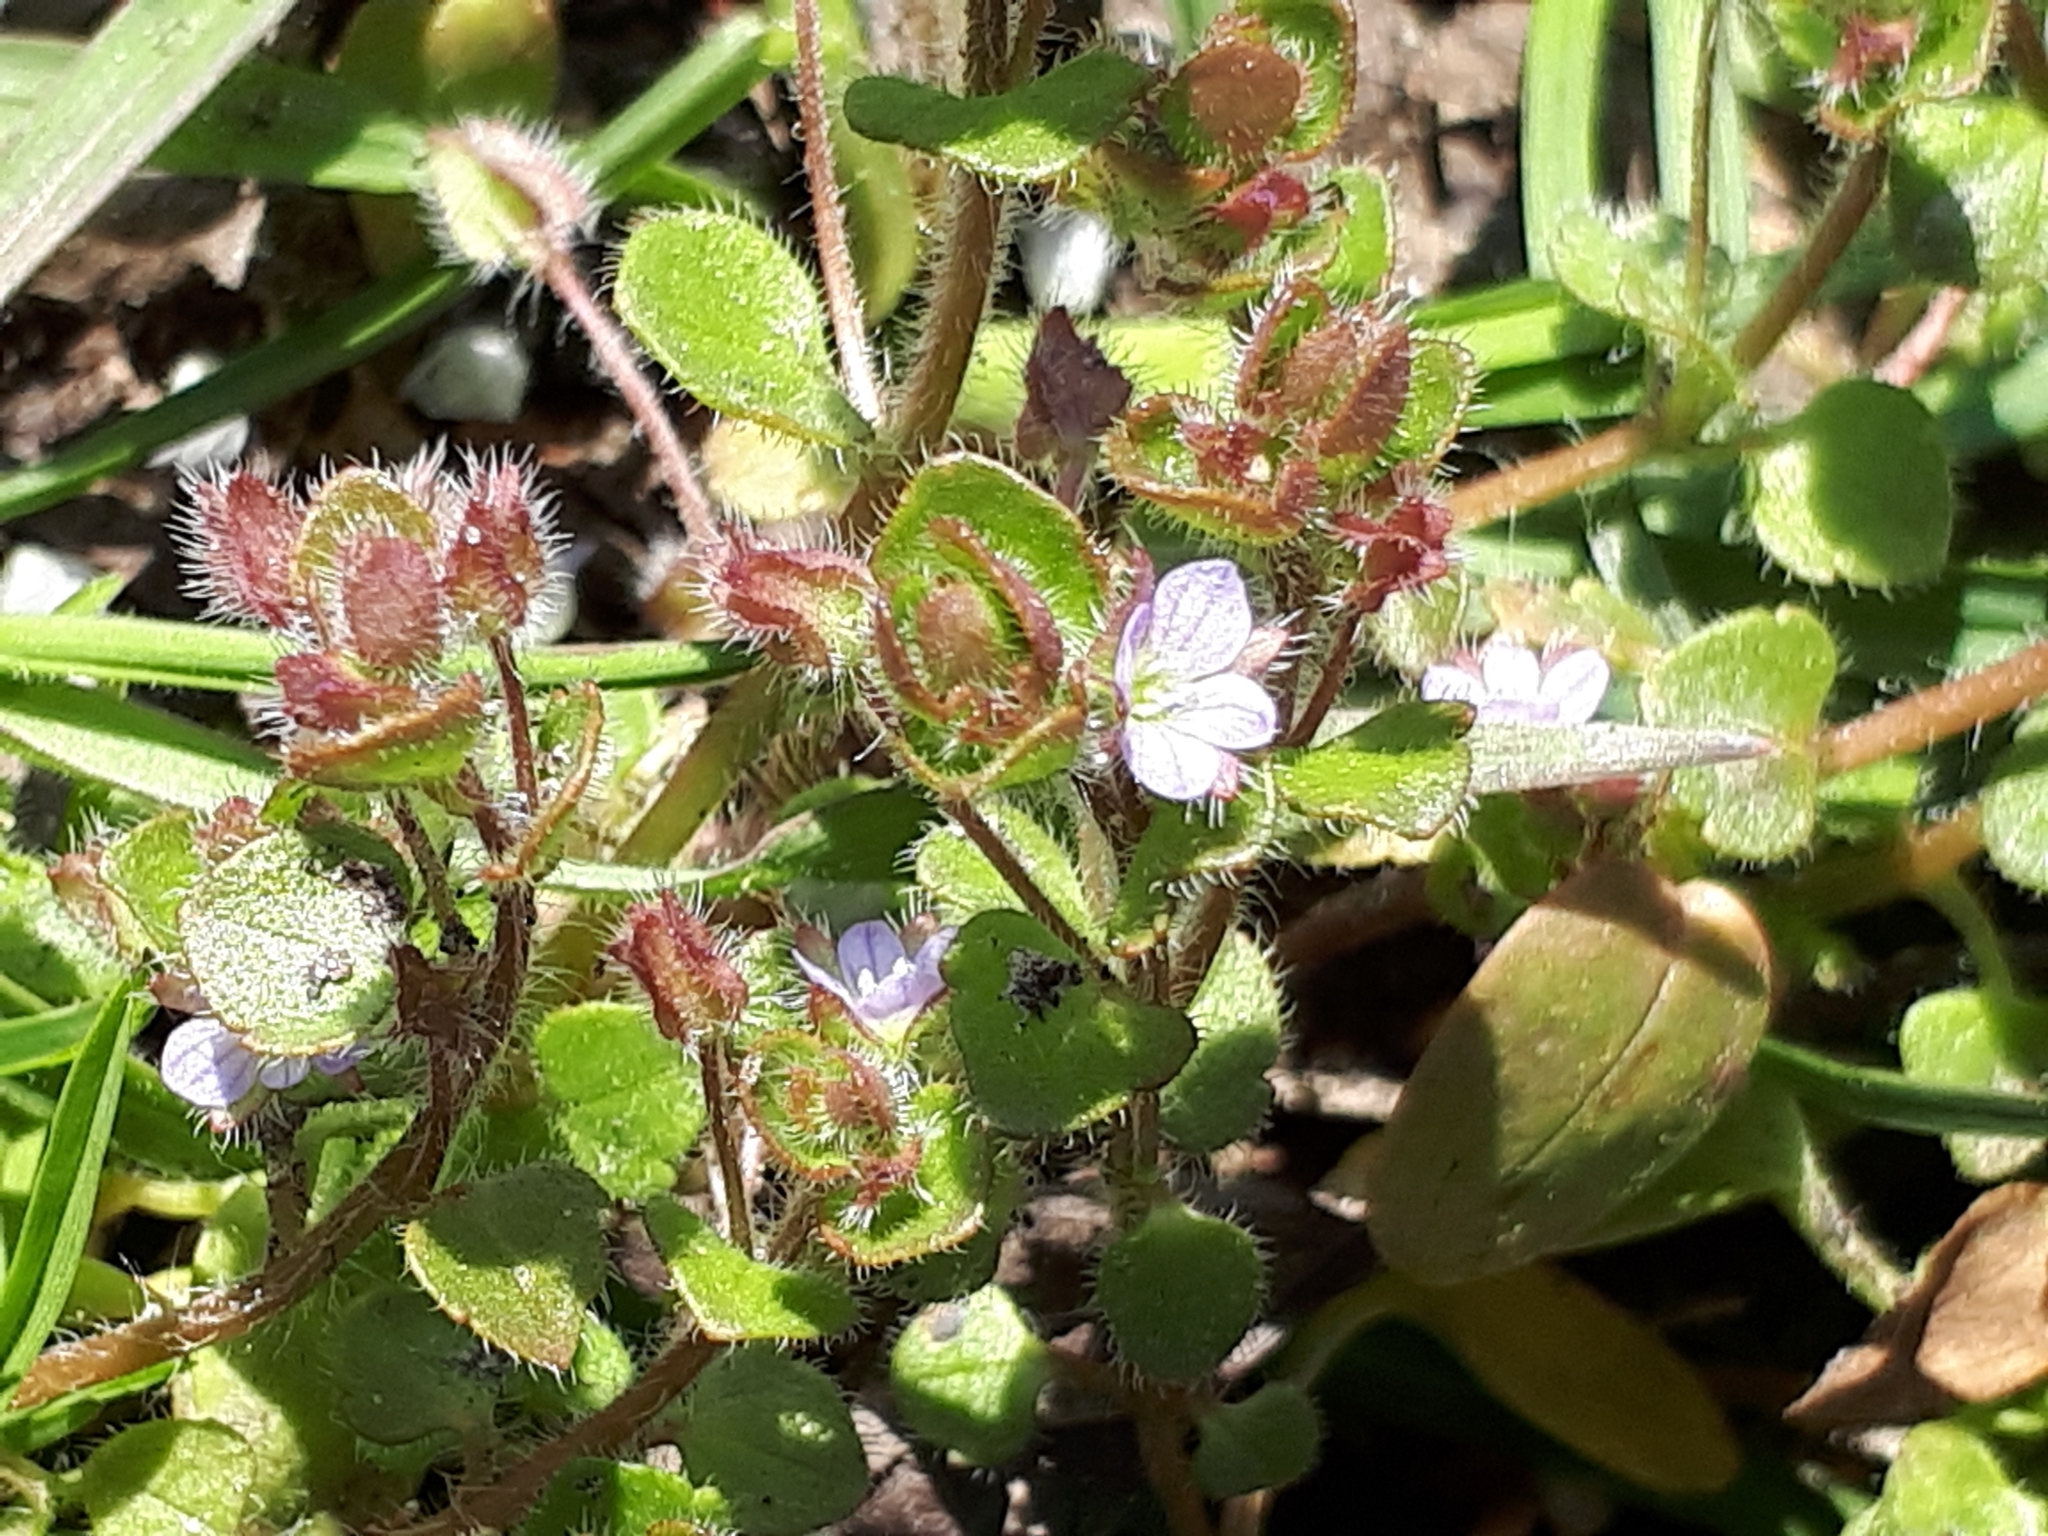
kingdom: Plantae
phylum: Tracheophyta
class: Magnoliopsida
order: Lamiales
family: Plantaginaceae
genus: Veronica
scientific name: Veronica sublobata
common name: False ivy-leaved speedwell
